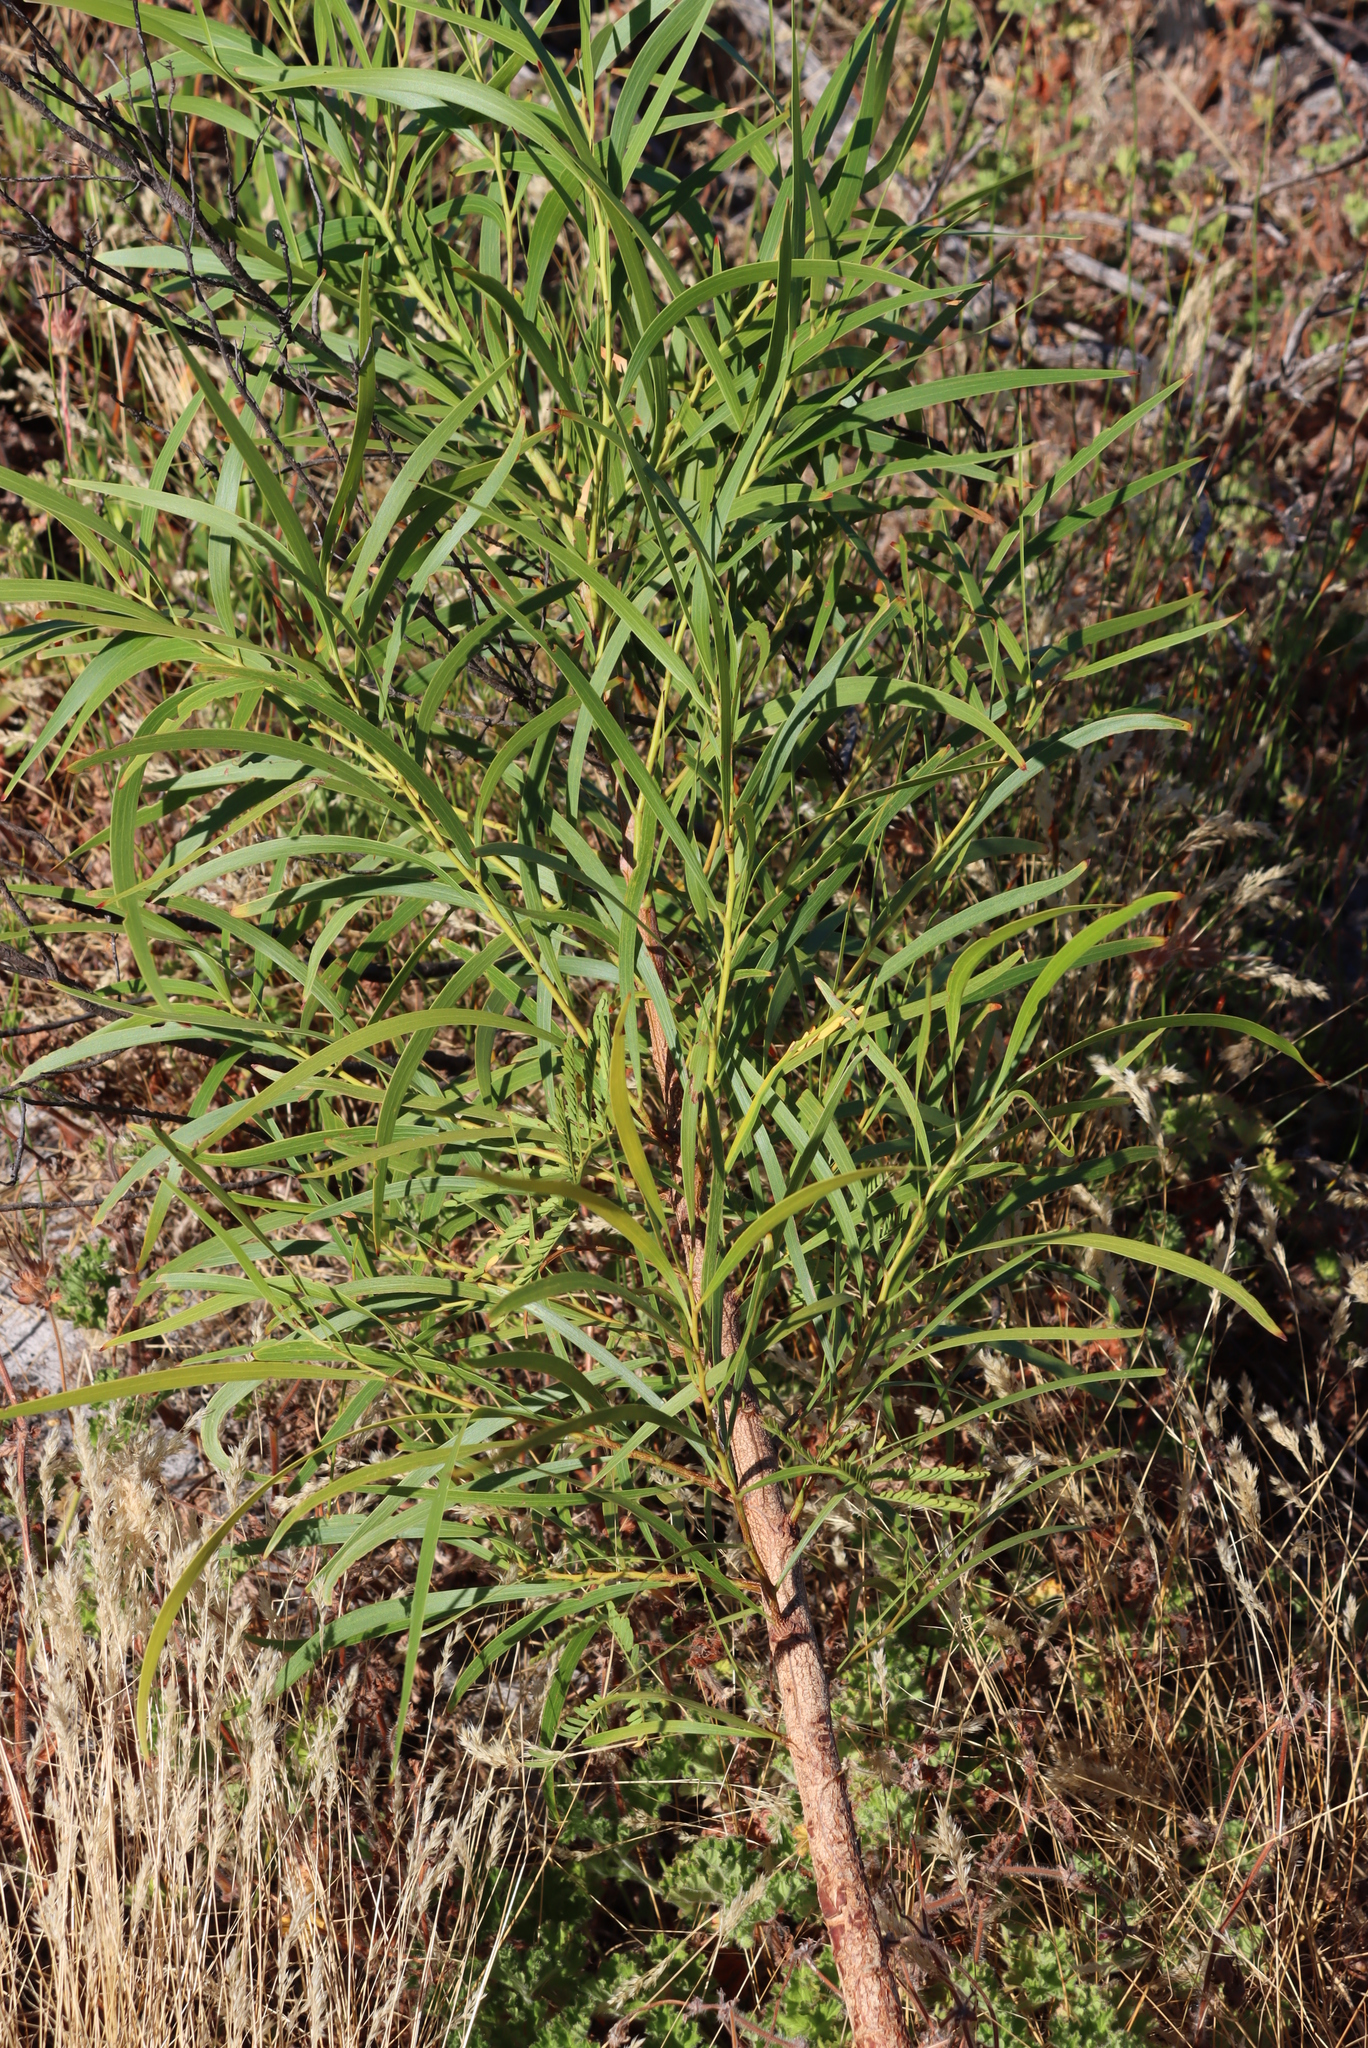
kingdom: Plantae
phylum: Tracheophyta
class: Magnoliopsida
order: Fabales
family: Fabaceae
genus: Acacia
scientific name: Acacia implexa
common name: Black wattle
